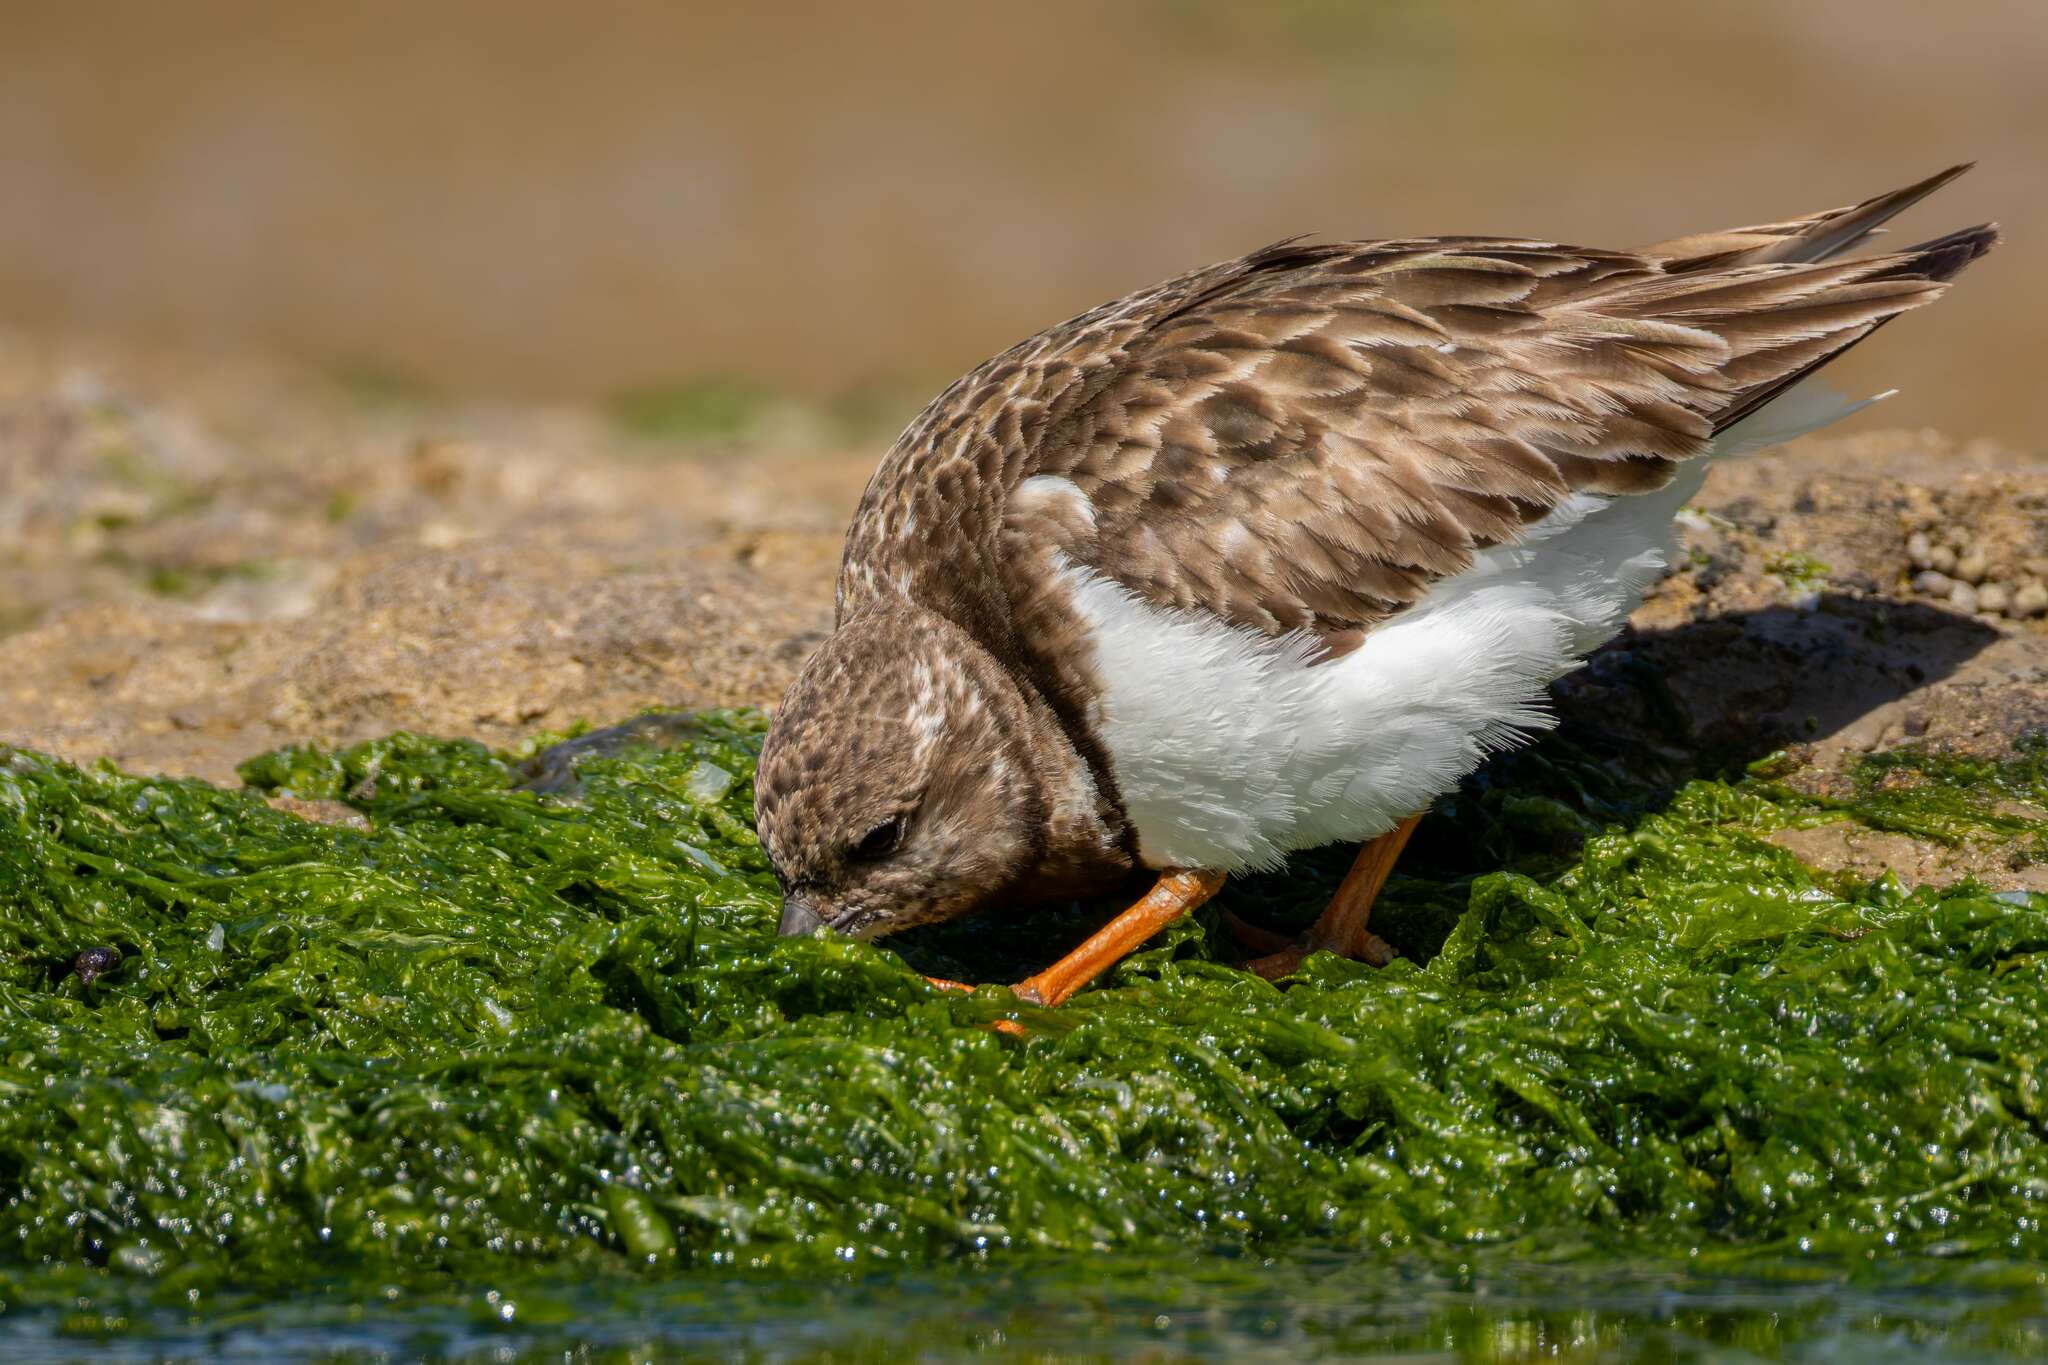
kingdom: Animalia
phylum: Chordata
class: Aves
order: Charadriiformes
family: Scolopacidae
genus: Arenaria
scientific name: Arenaria interpres
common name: Ruddy turnstone
